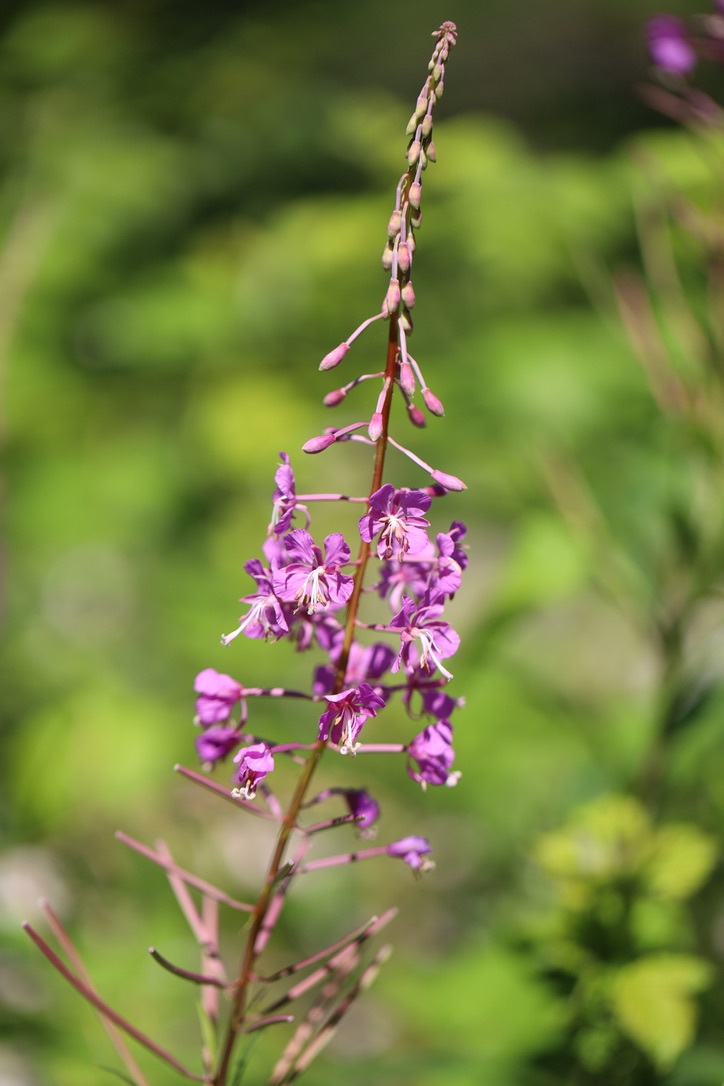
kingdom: Plantae
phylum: Tracheophyta
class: Magnoliopsida
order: Myrtales
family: Onagraceae
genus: Chamaenerion
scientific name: Chamaenerion angustifolium
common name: Fireweed
